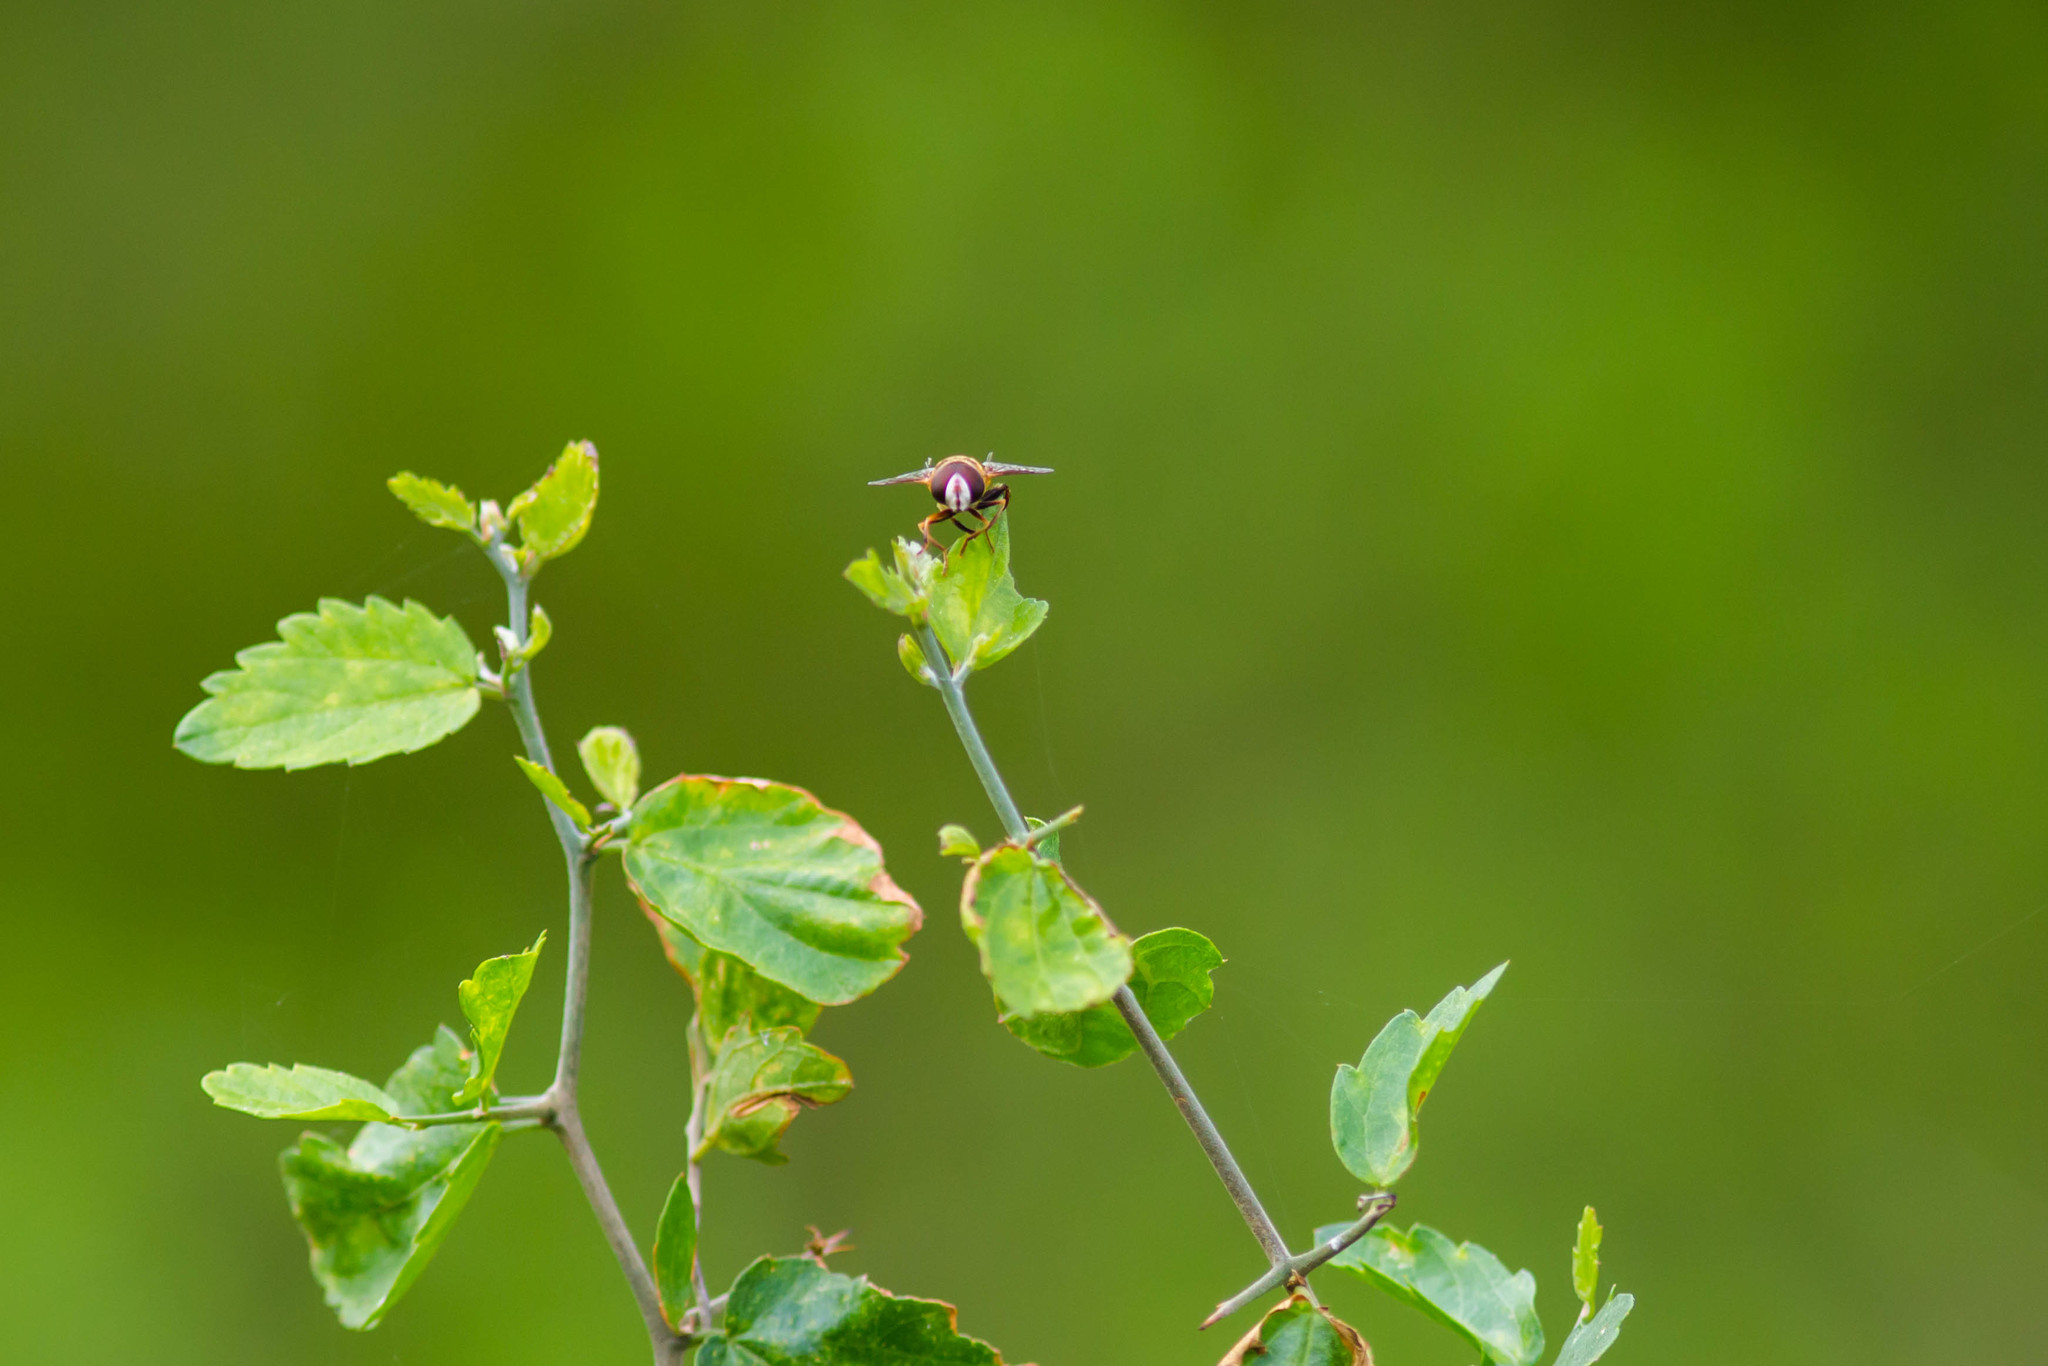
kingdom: Animalia
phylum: Arthropoda
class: Insecta
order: Diptera
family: Syrphidae
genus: Palpada
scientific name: Palpada vinetorum
